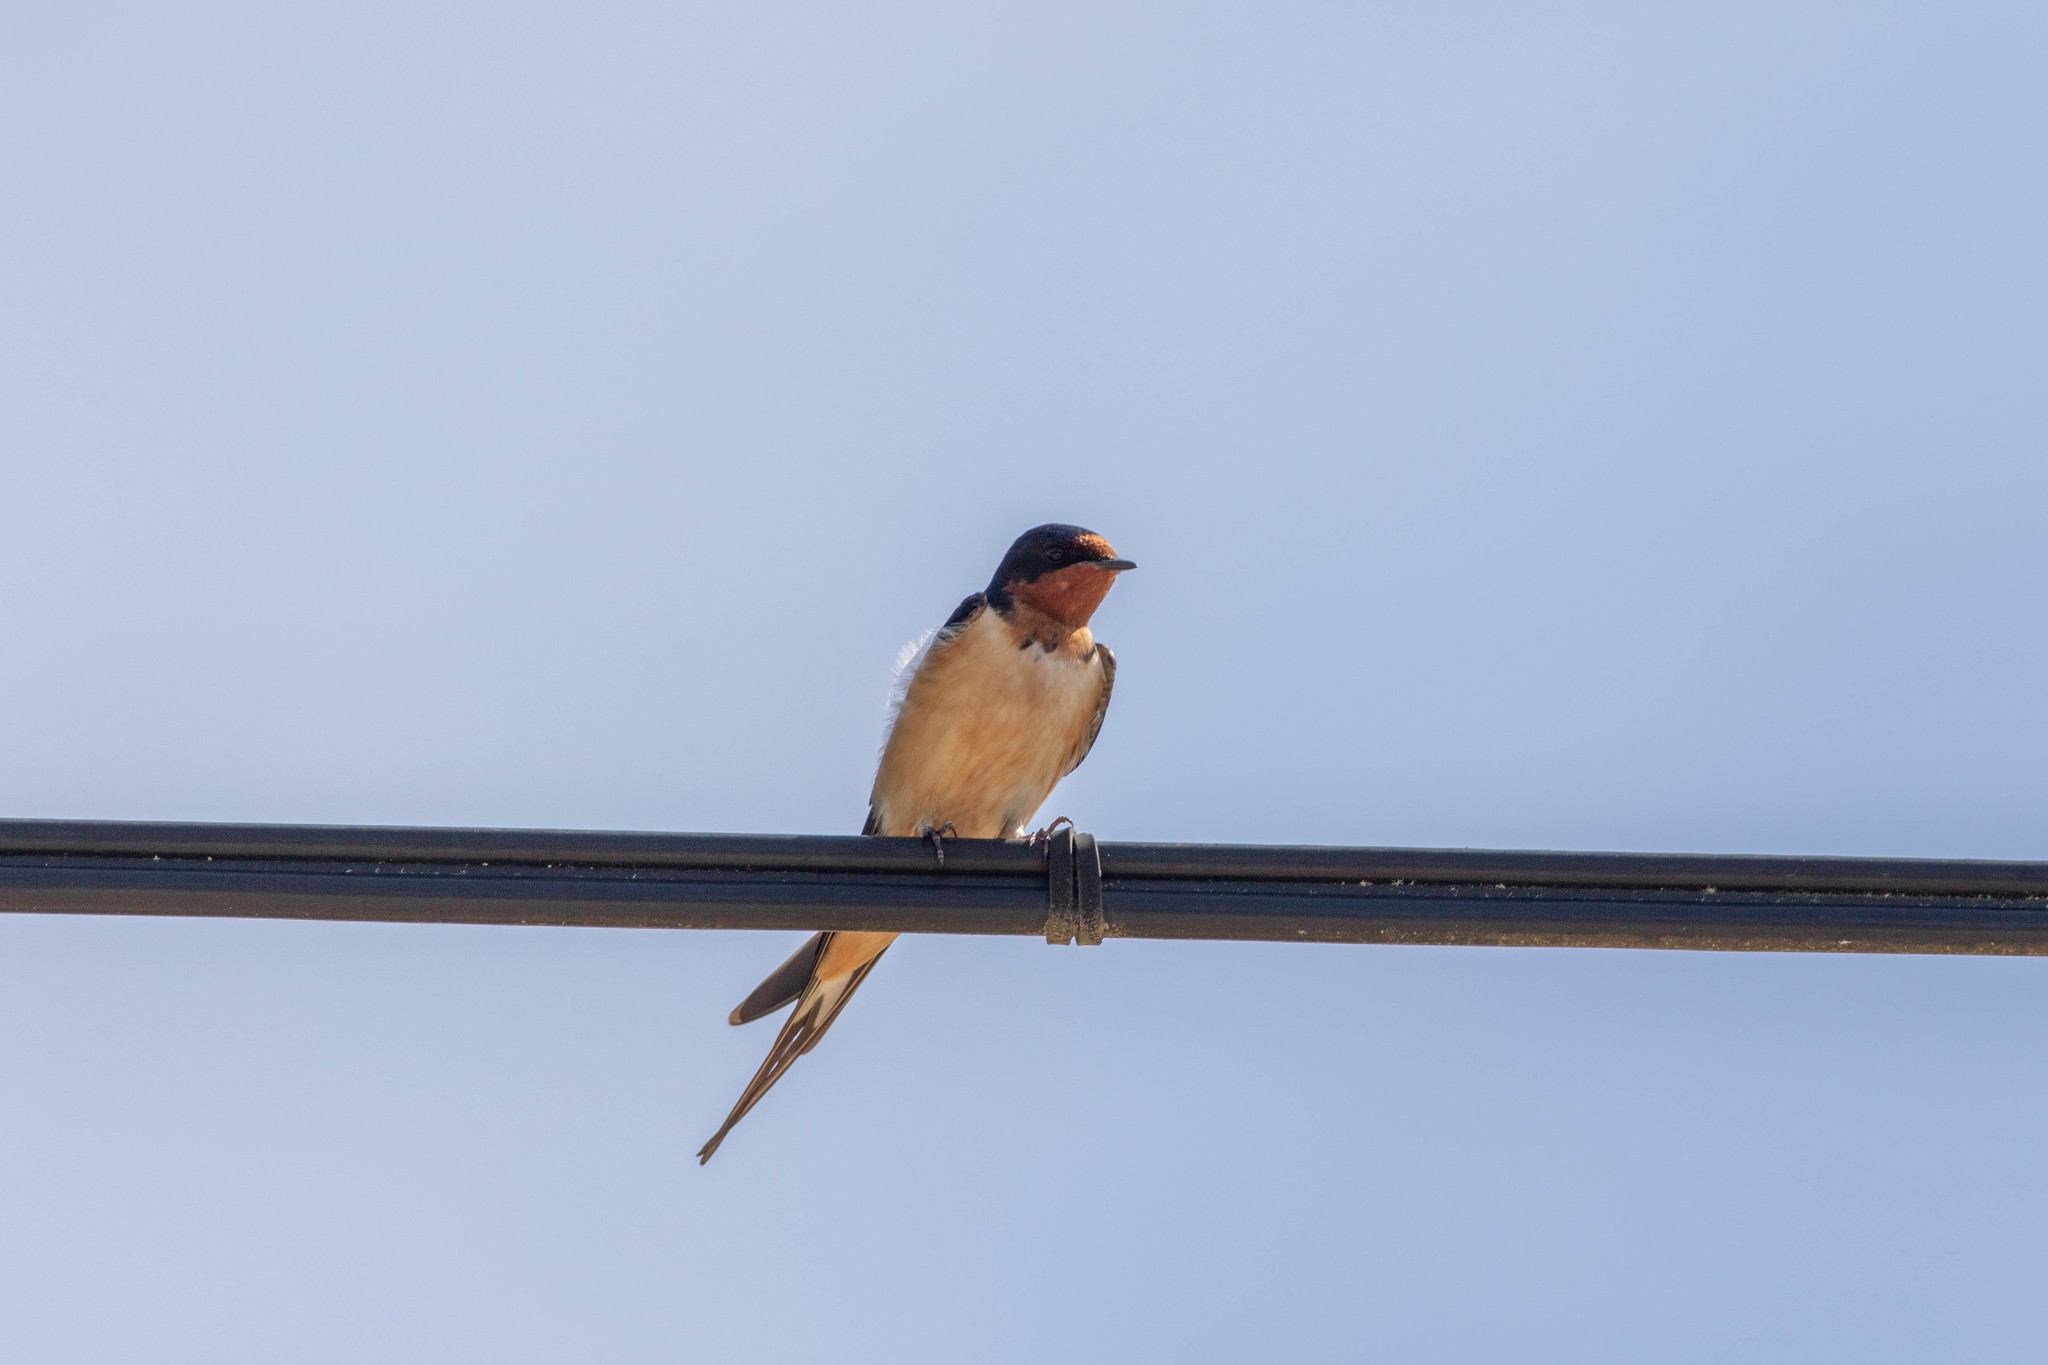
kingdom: Animalia
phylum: Chordata
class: Aves
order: Passeriformes
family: Hirundinidae
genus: Hirundo
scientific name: Hirundo rustica
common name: Barn swallow
